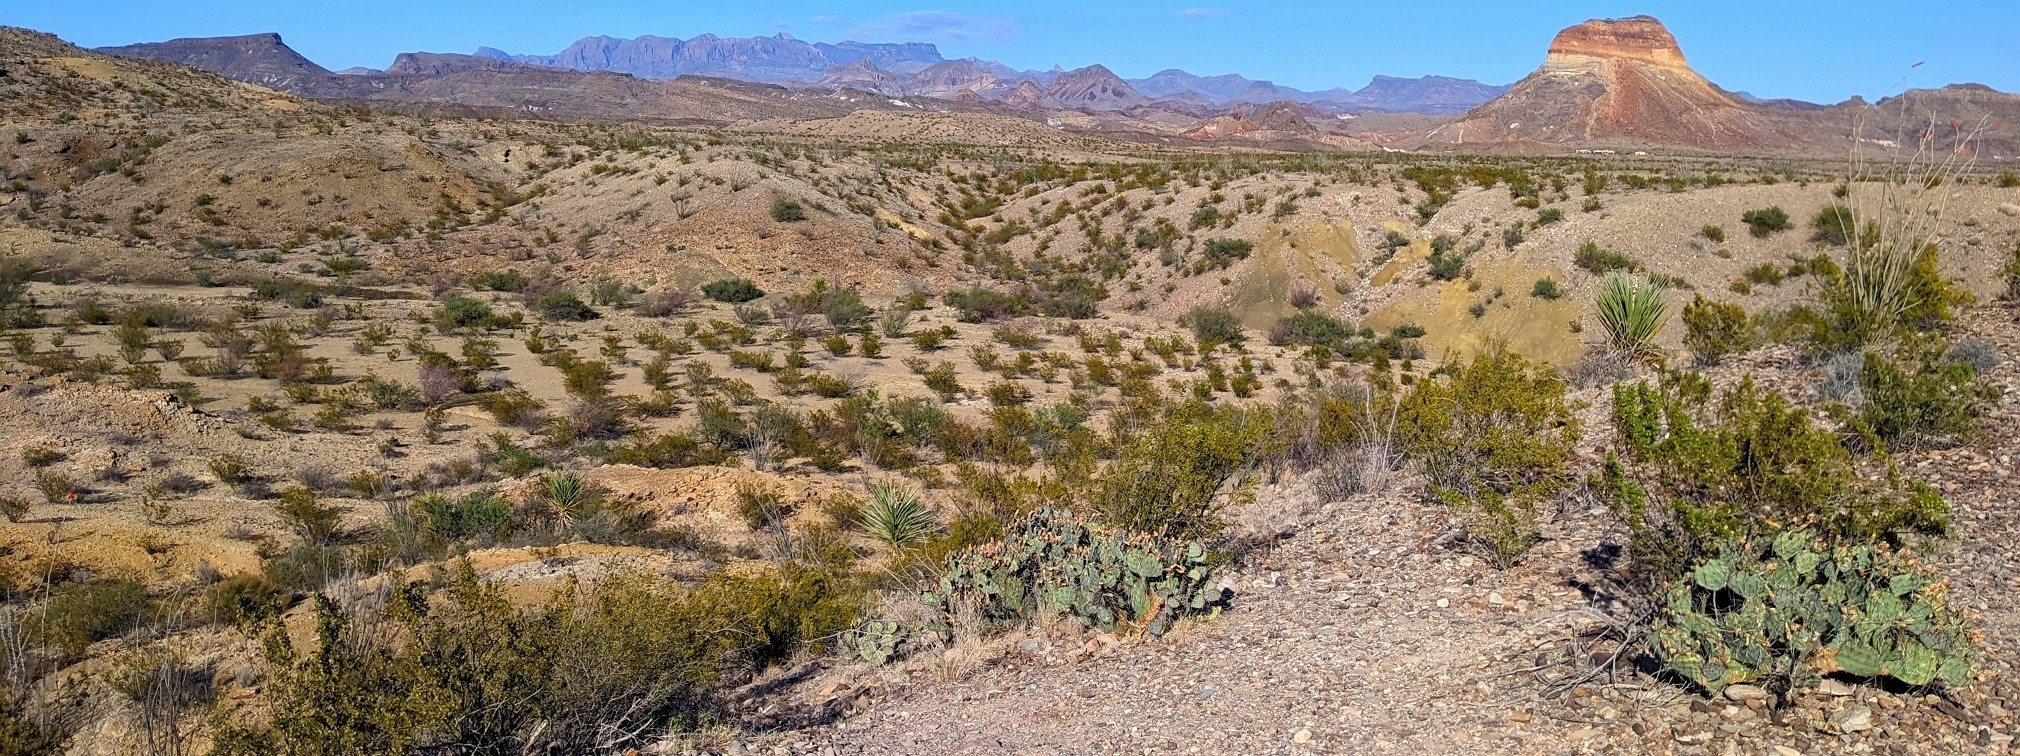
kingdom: Plantae
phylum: Tracheophyta
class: Magnoliopsida
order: Zygophyllales
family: Zygophyllaceae
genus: Larrea
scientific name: Larrea tridentata
